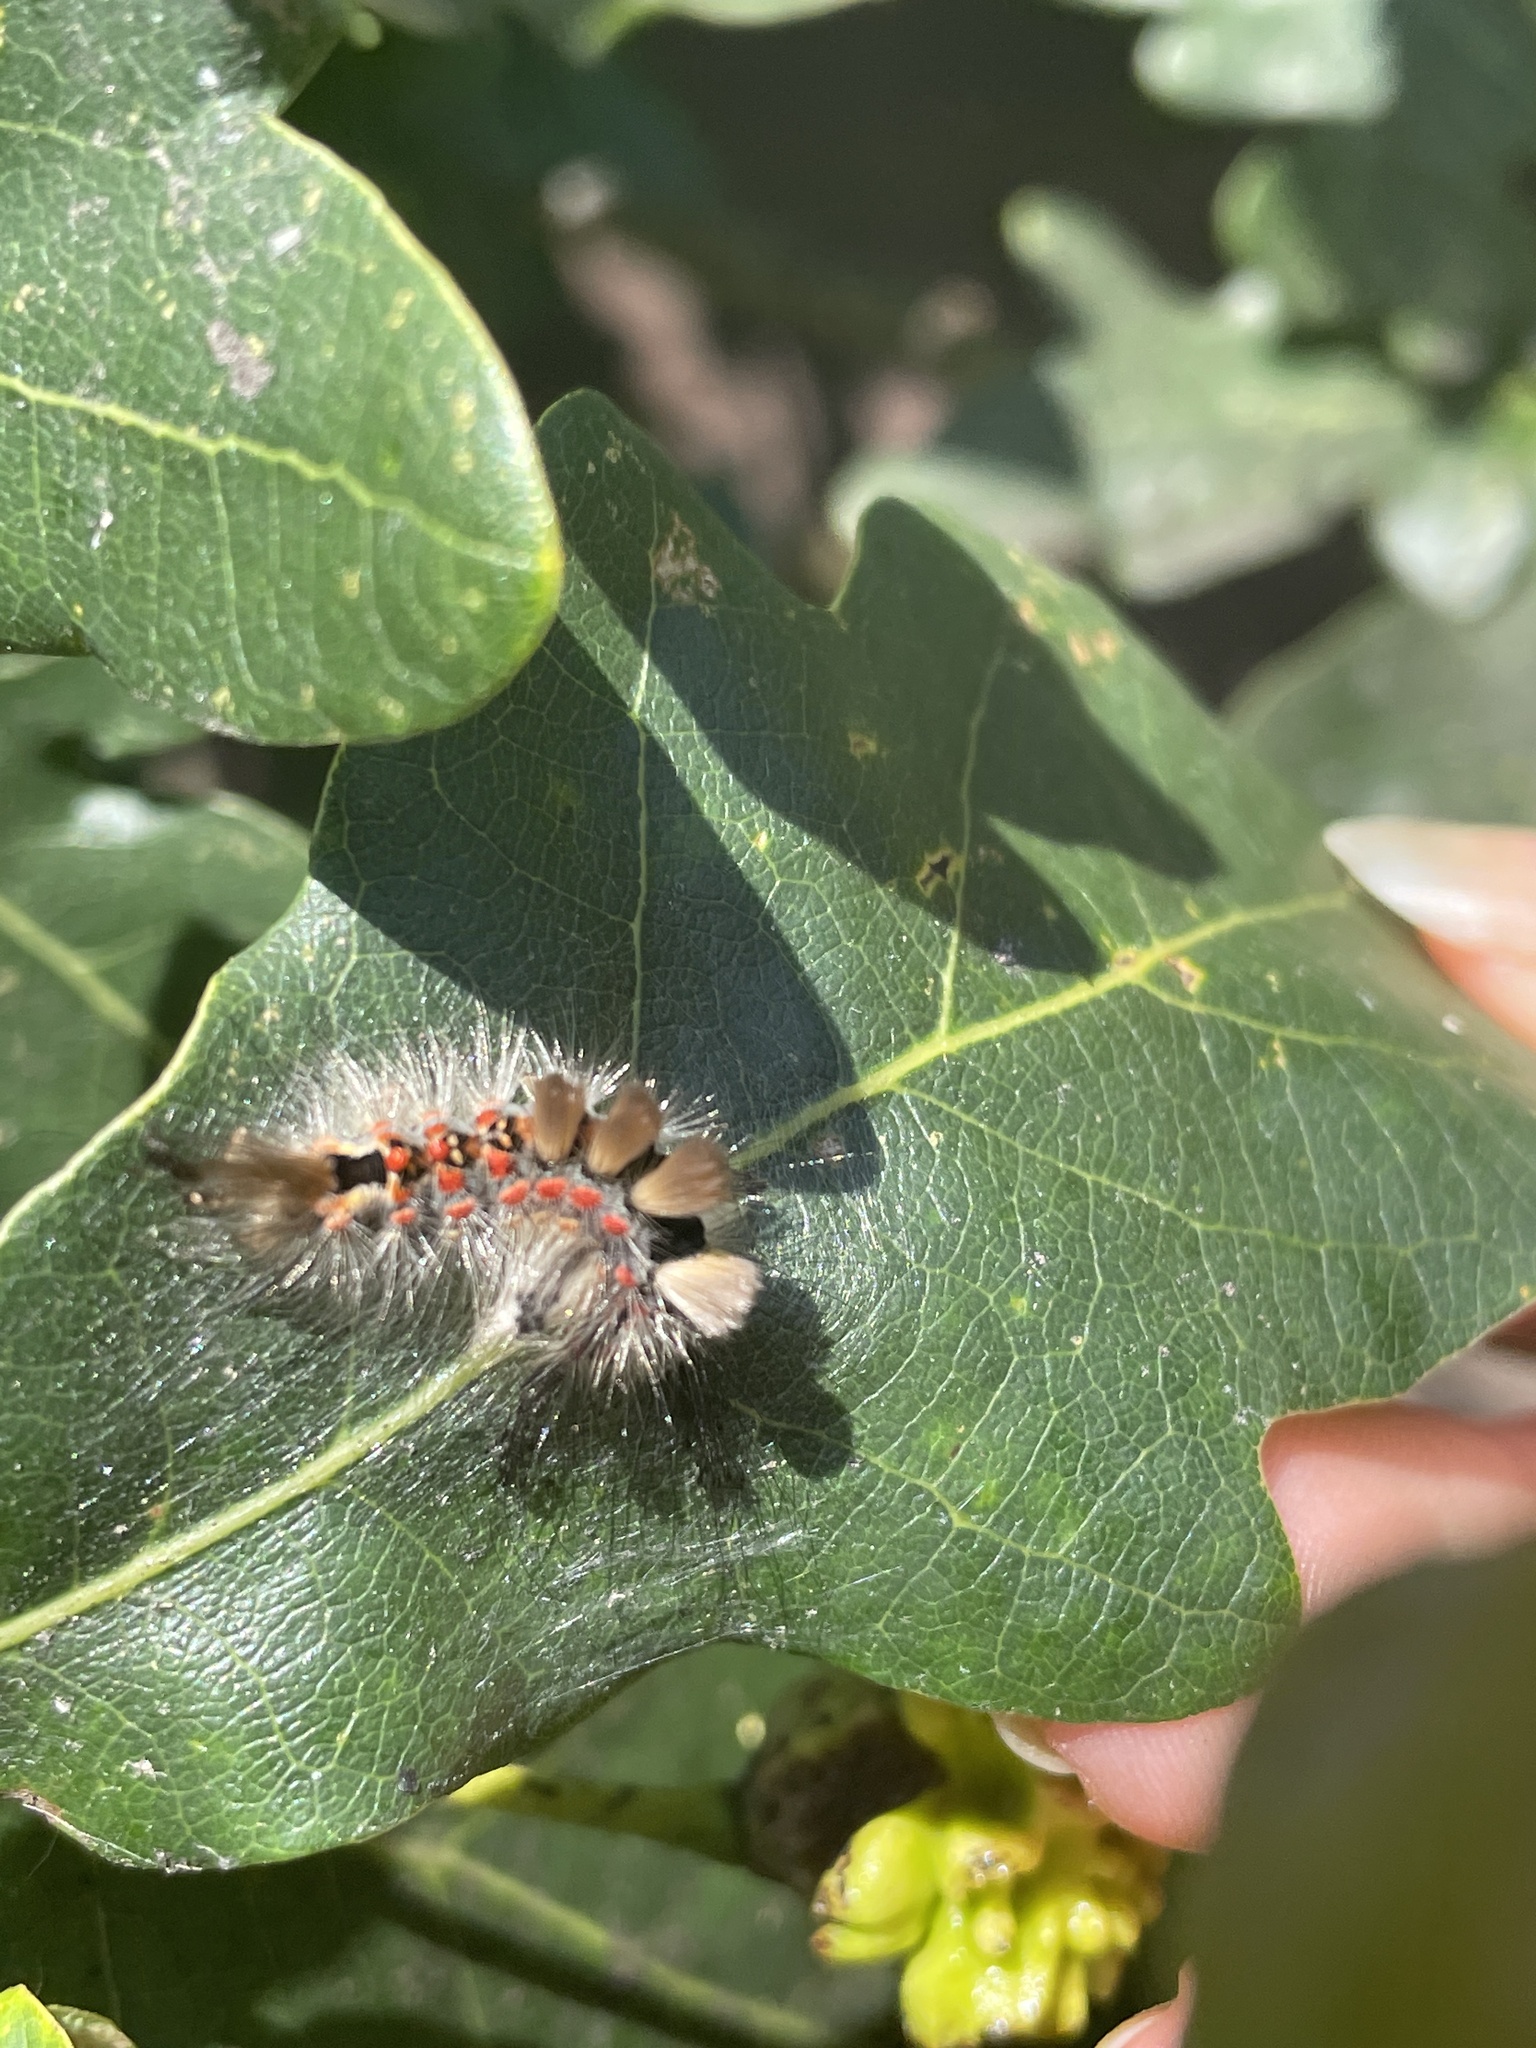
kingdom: Animalia
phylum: Arthropoda
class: Insecta
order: Lepidoptera
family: Erebidae
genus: Orgyia
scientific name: Orgyia antiqua
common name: Vapourer
